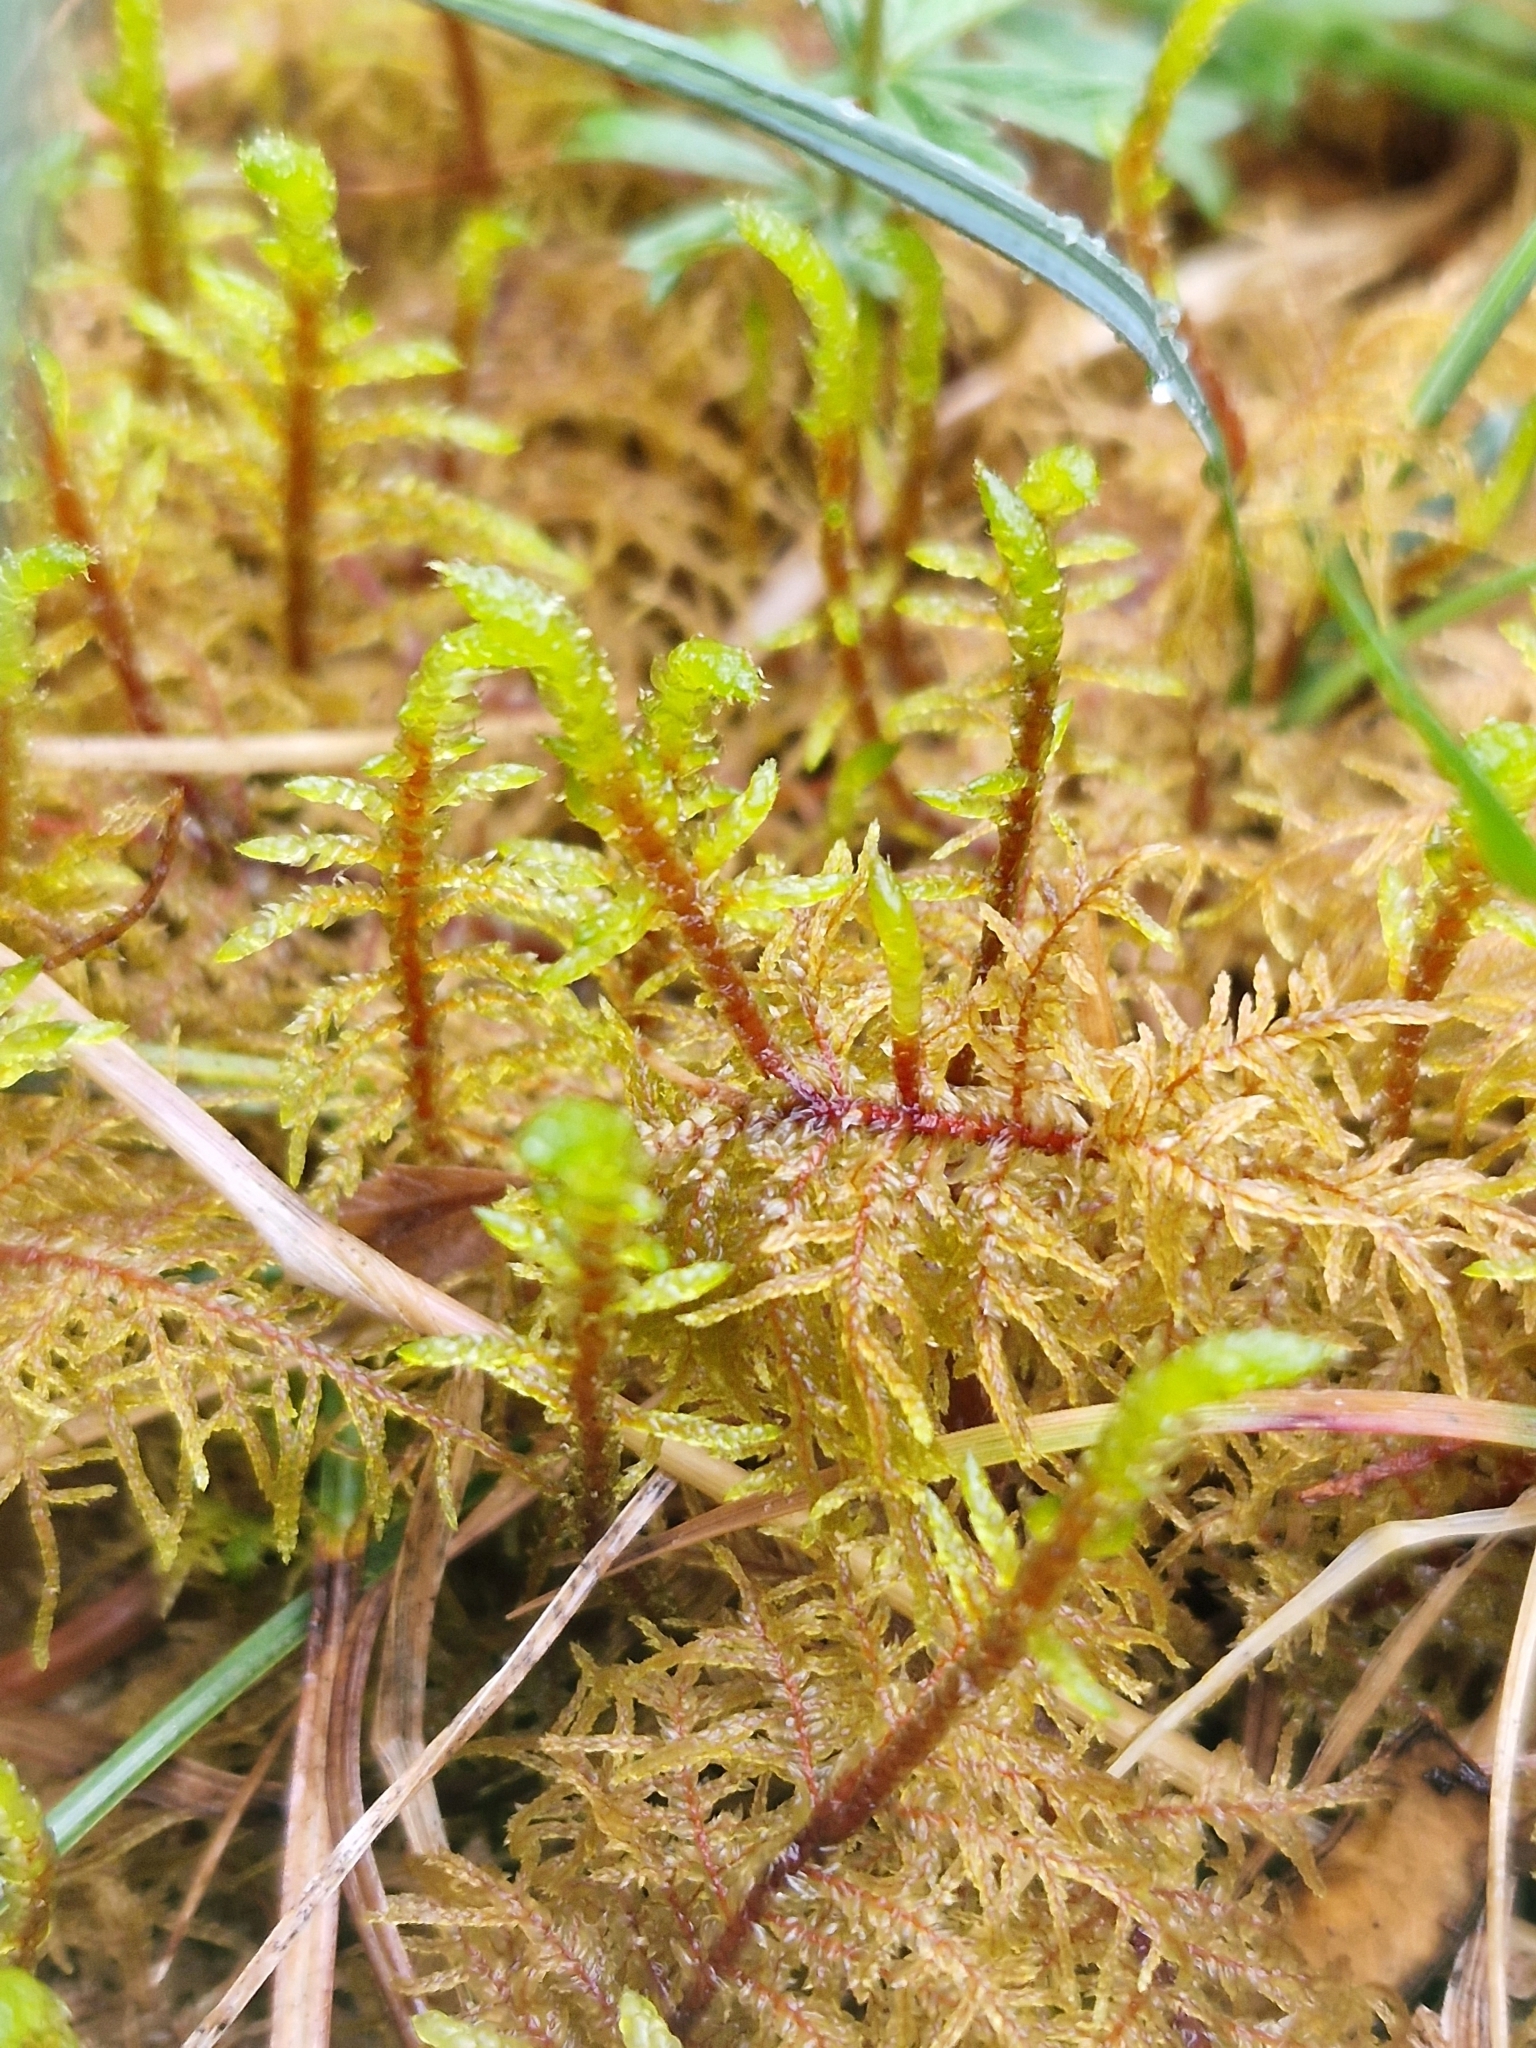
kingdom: Plantae
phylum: Bryophyta
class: Bryopsida
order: Hypnales
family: Hylocomiaceae
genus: Hylocomium
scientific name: Hylocomium splendens
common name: Stairstep moss
